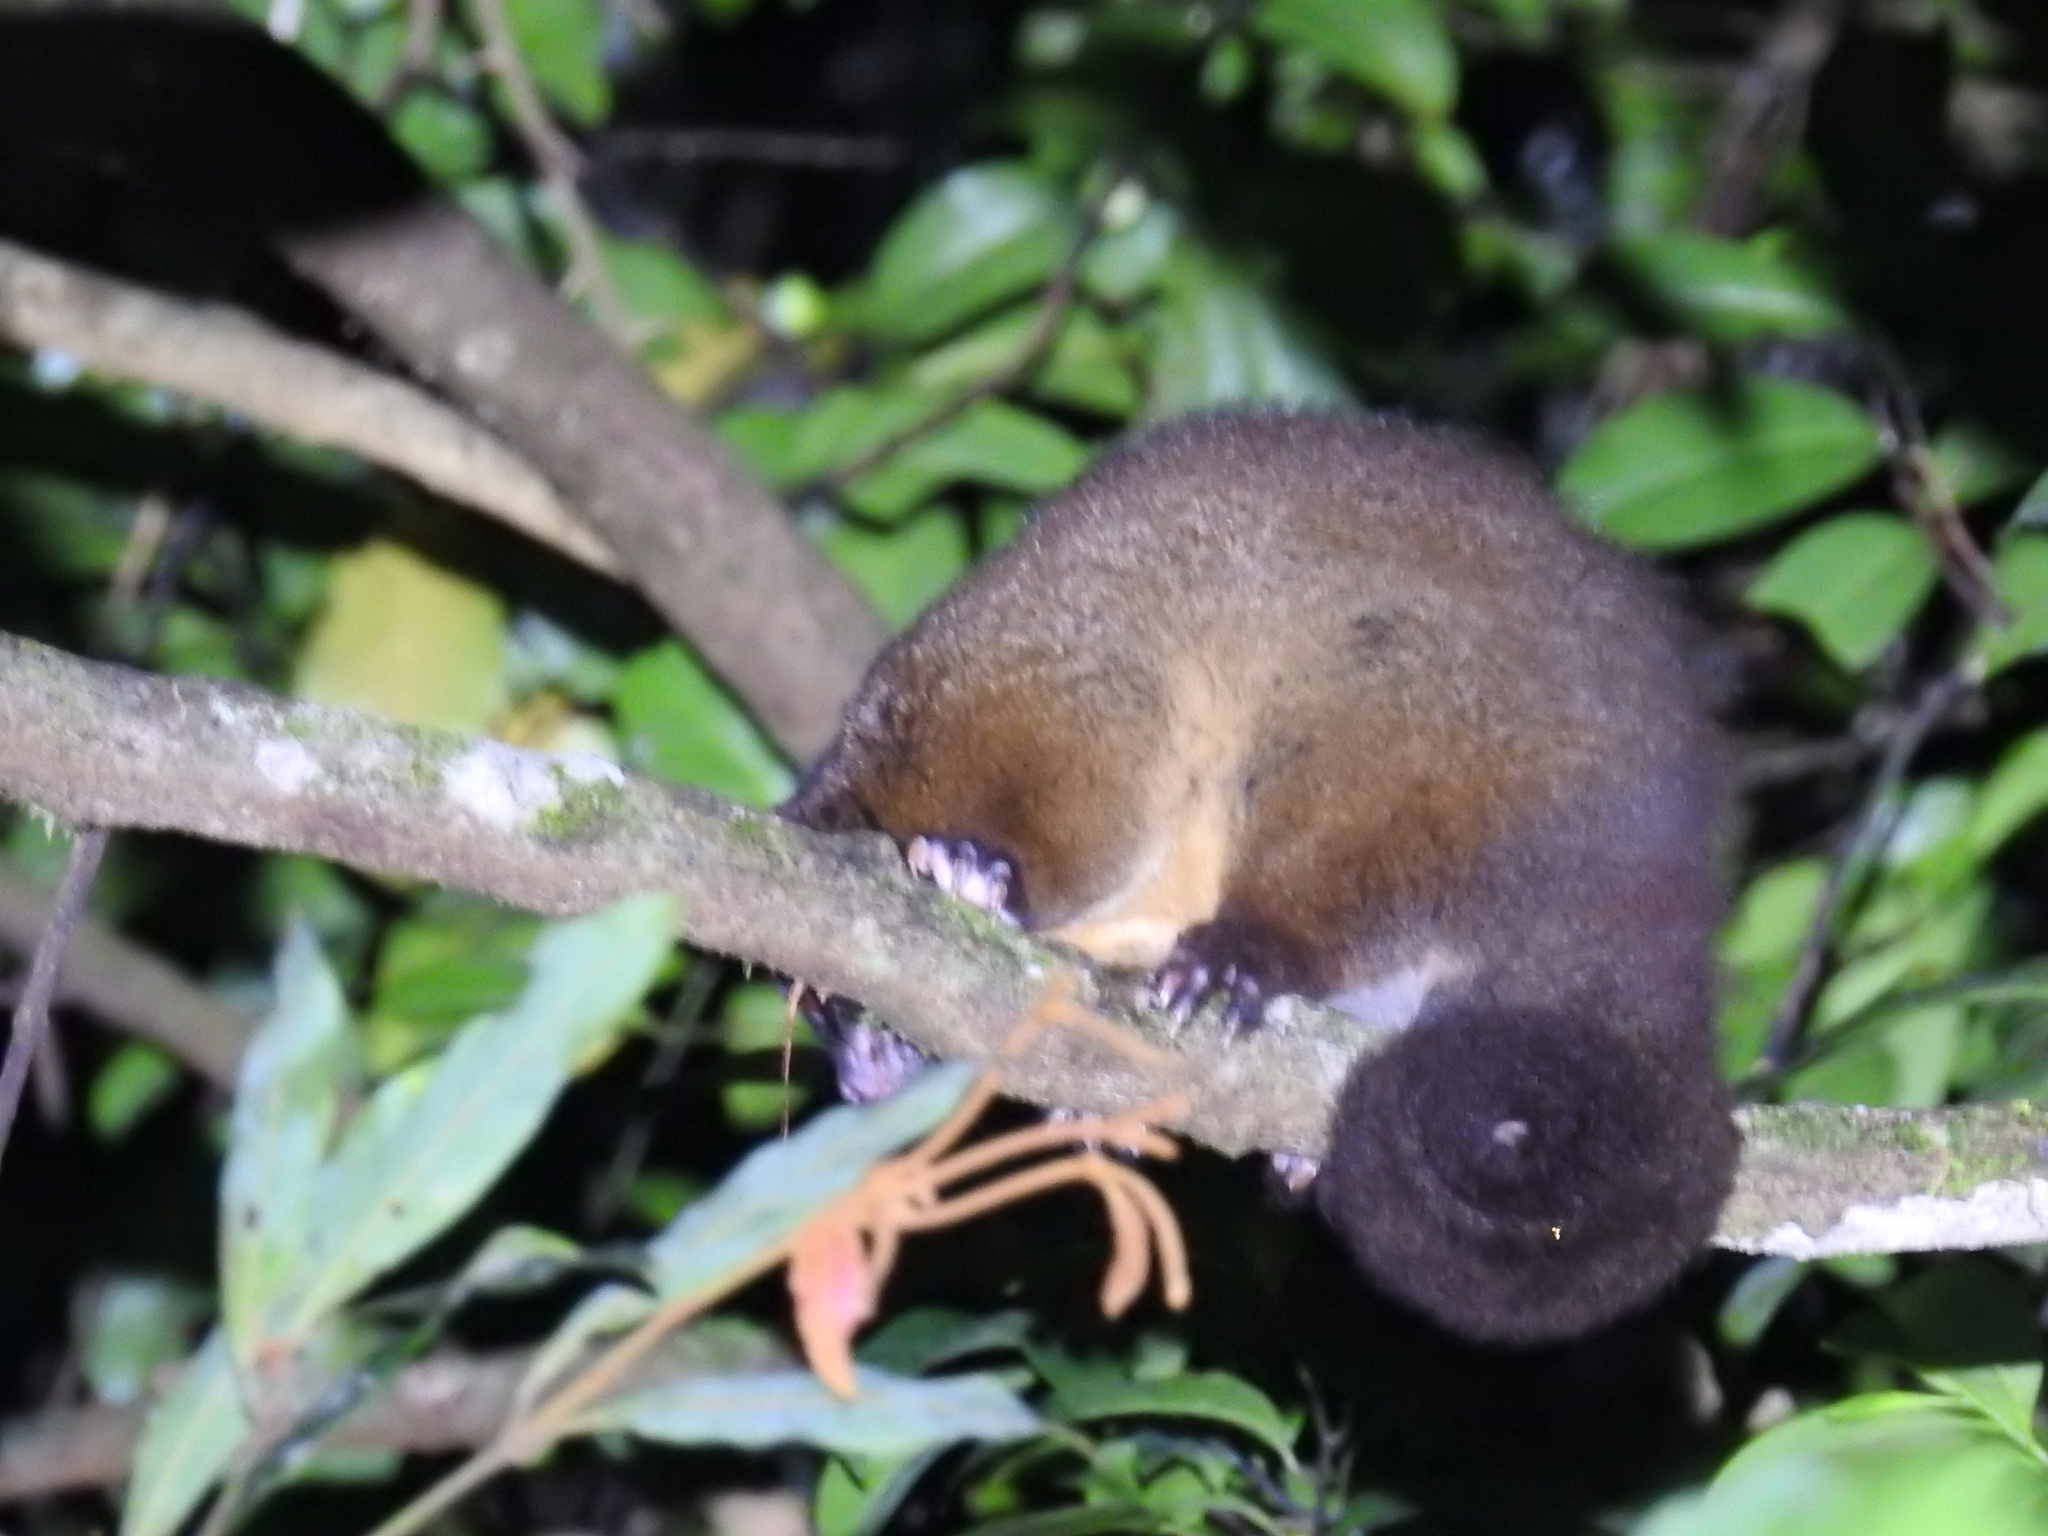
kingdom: Animalia
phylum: Chordata
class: Mammalia
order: Diprotodontia
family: Pseudocheiridae
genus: Hemibelideus
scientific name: Hemibelideus lemuroides
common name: Lemur-like ringtail
